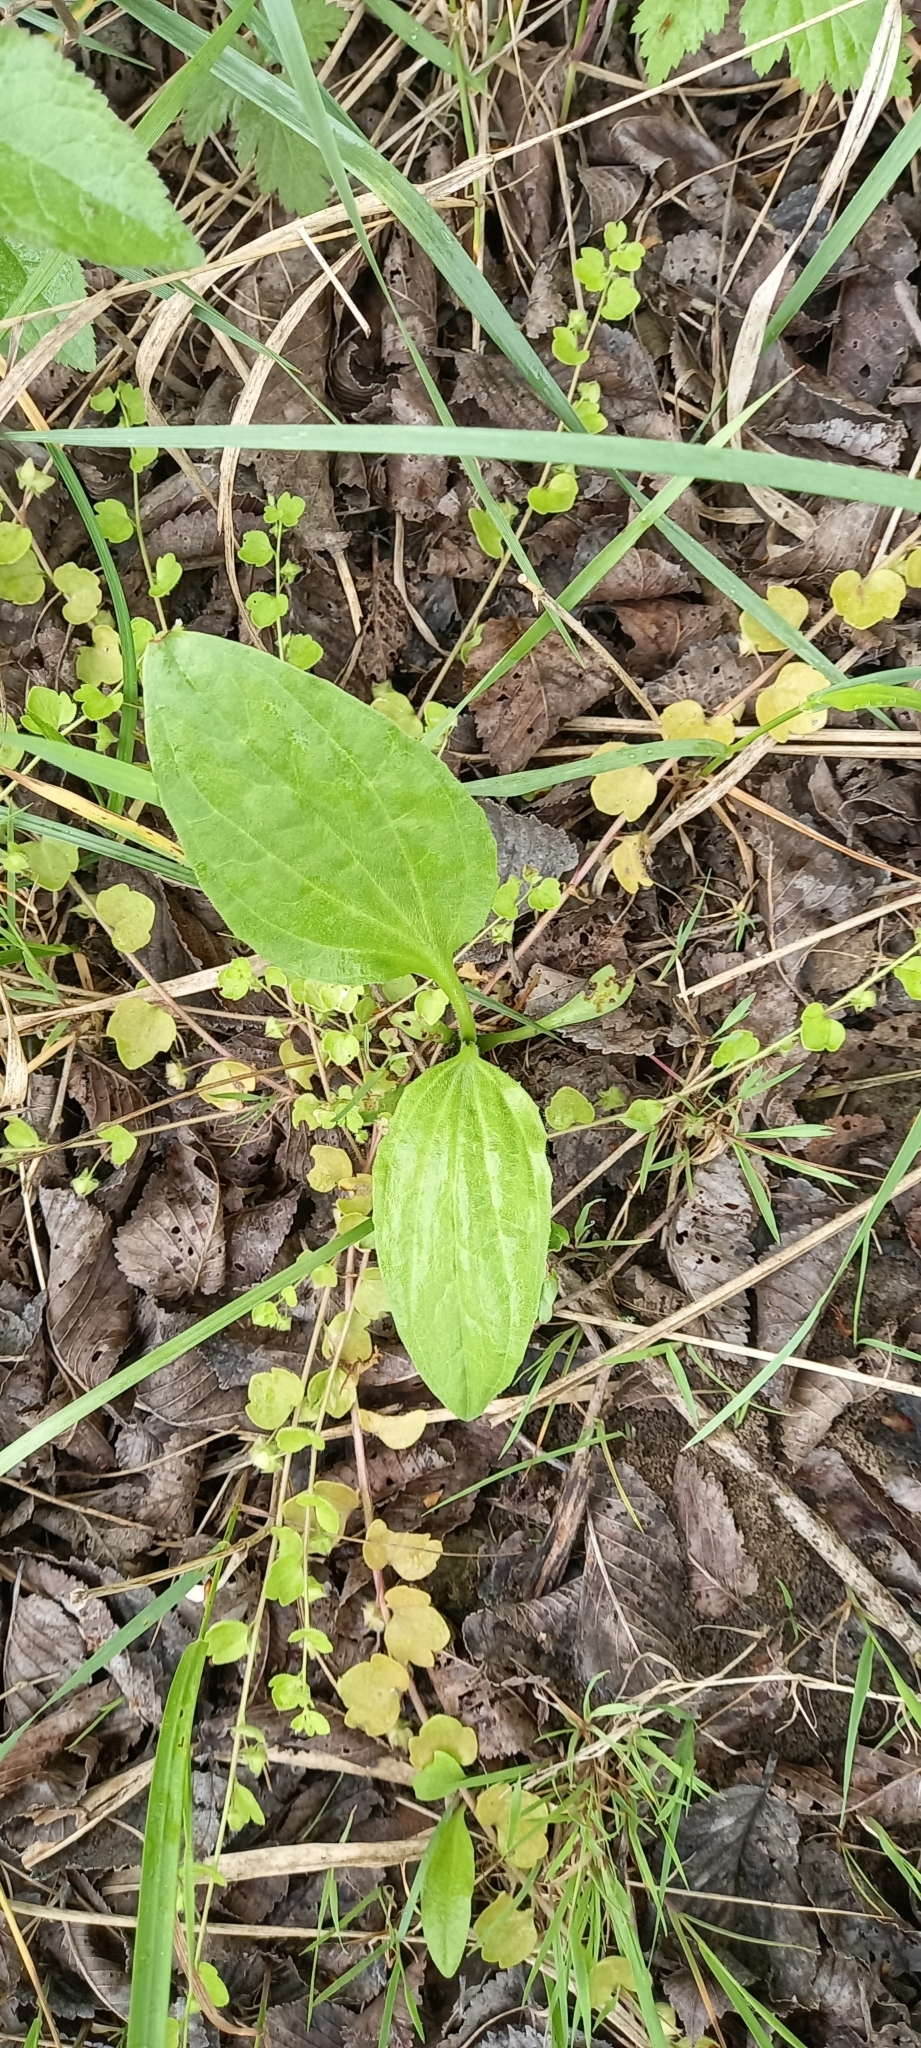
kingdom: Plantae
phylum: Tracheophyta
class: Magnoliopsida
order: Lamiales
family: Plantaginaceae
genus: Plantago
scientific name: Plantago major
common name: Common plantain
